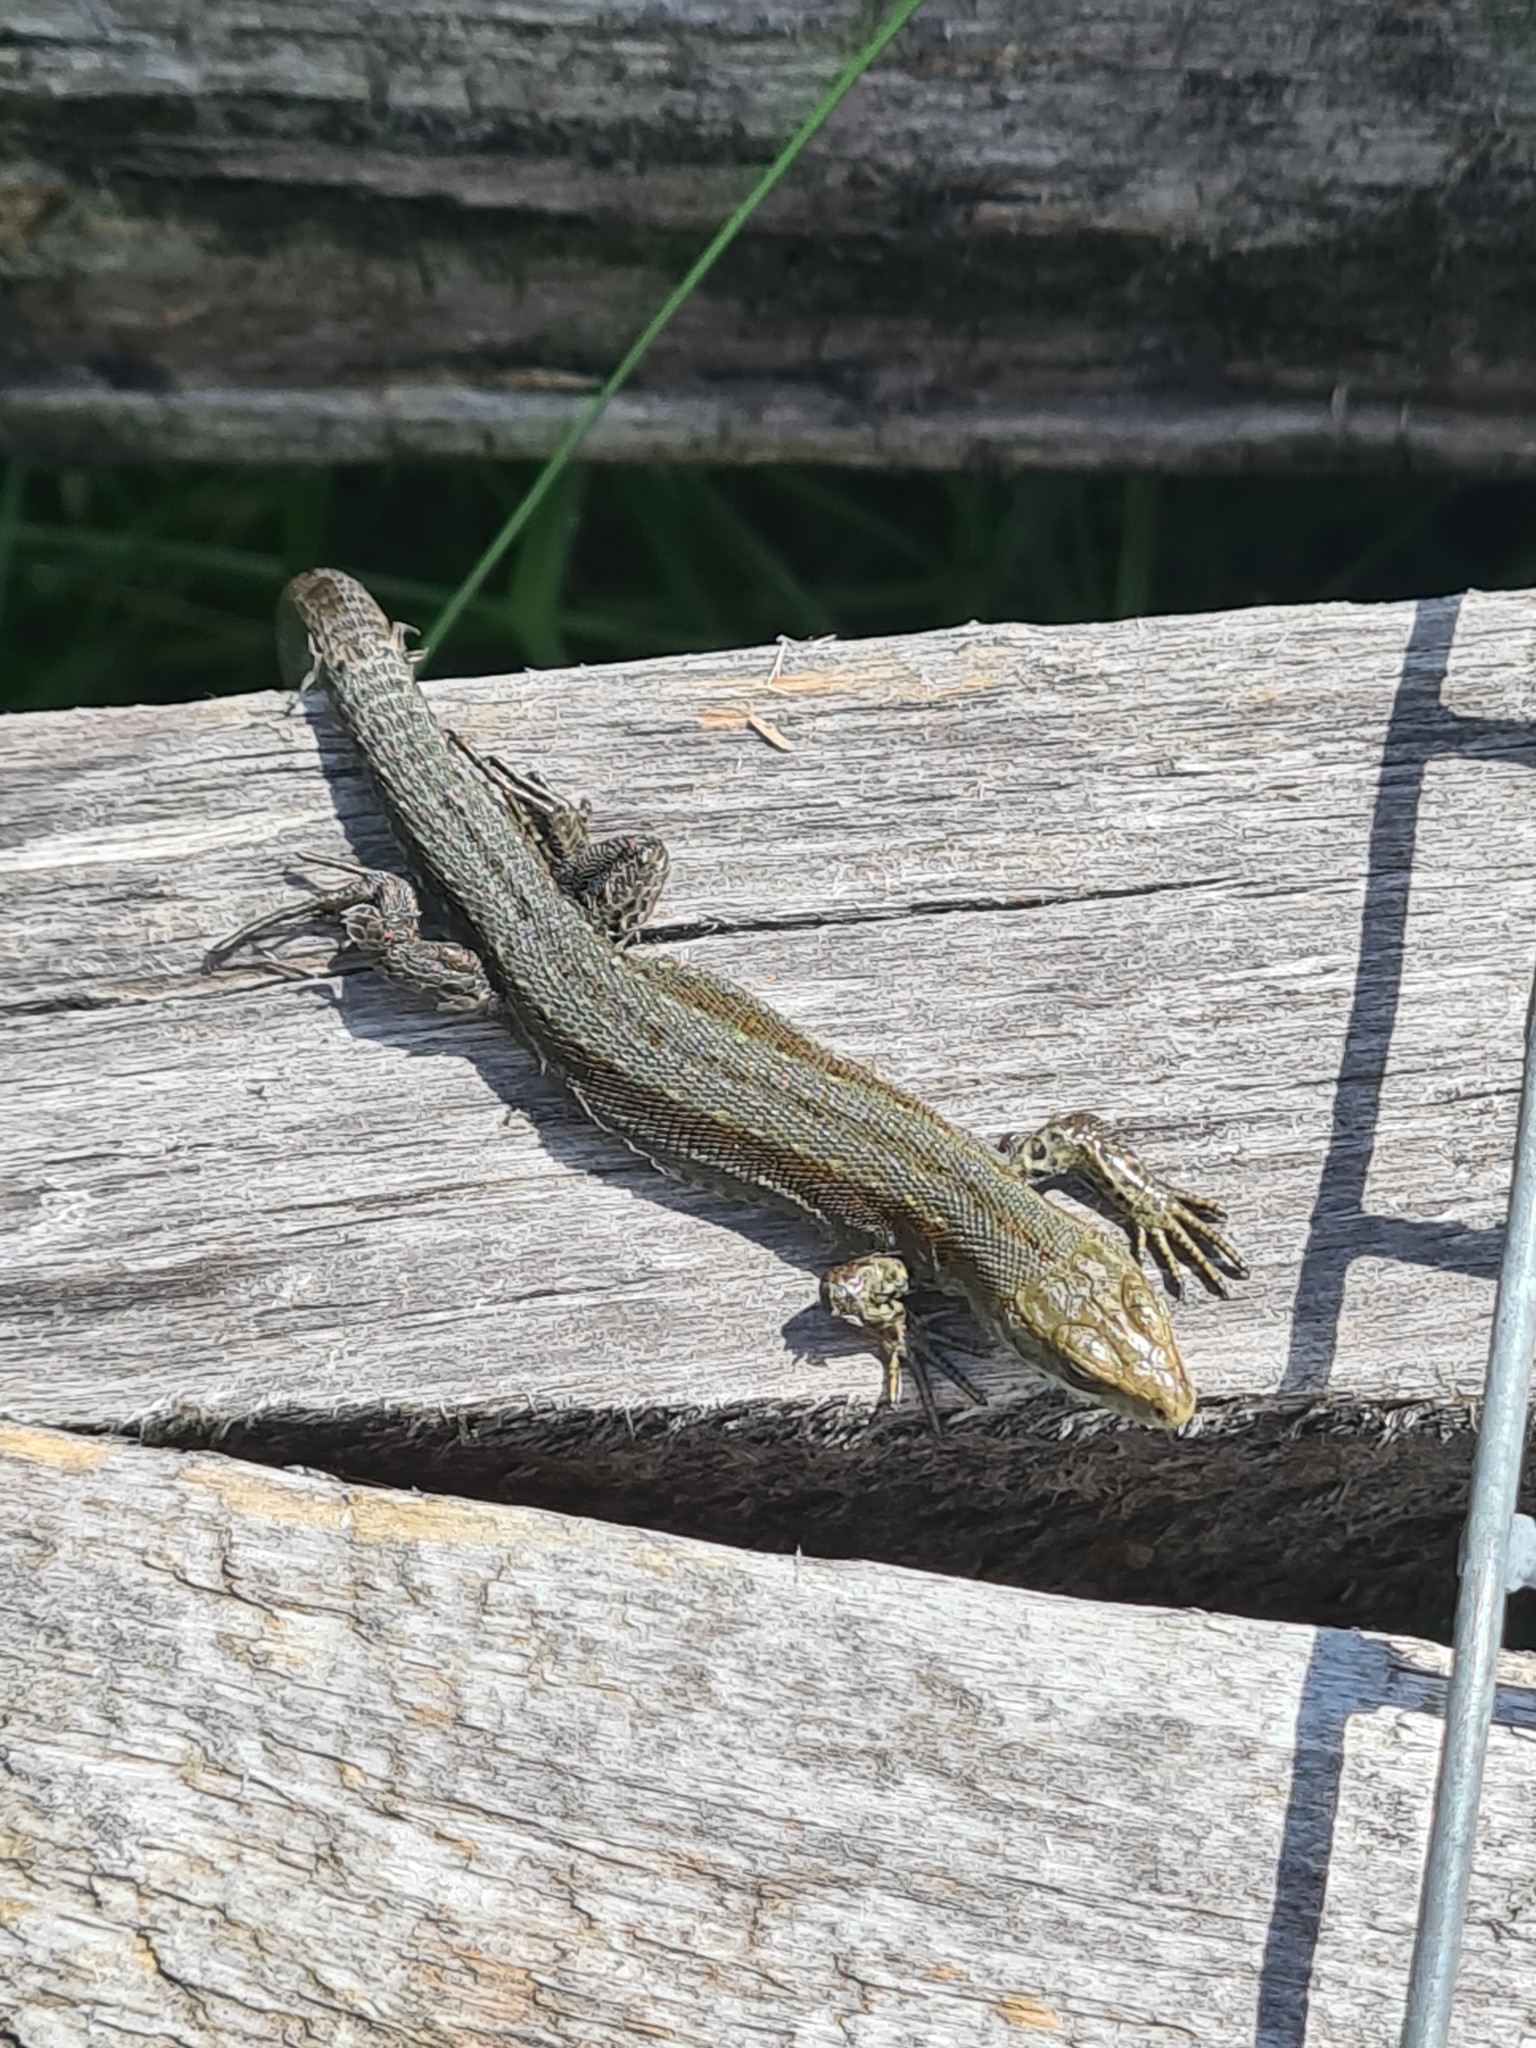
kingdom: Animalia
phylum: Chordata
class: Squamata
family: Lacertidae
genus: Zootoca
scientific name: Zootoca vivipara
